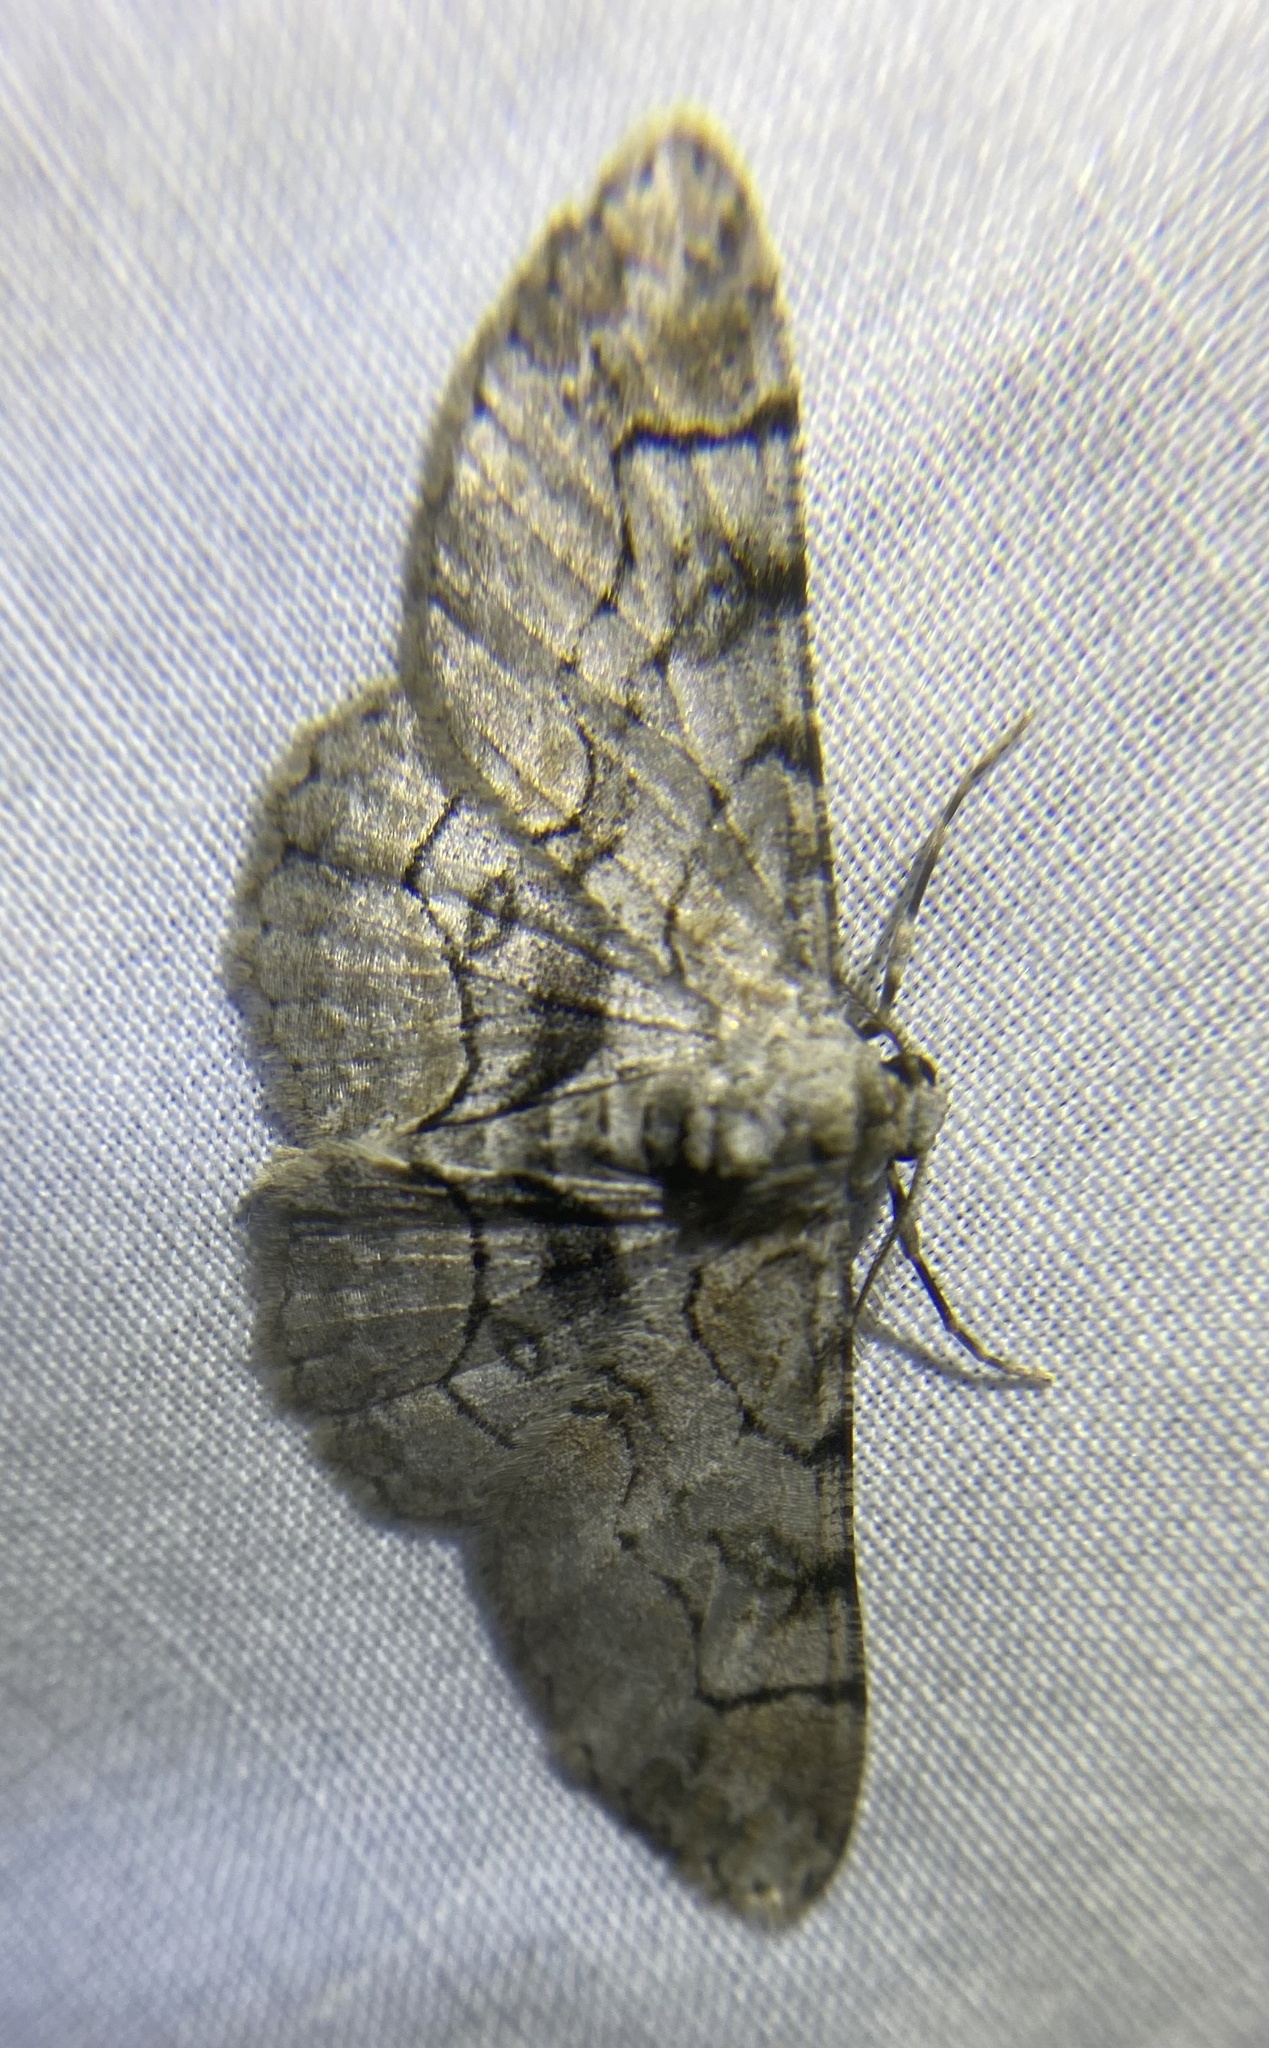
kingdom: Animalia
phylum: Arthropoda
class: Insecta
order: Lepidoptera
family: Geometridae
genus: Iridopsis
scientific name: Iridopsis larvaria
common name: Bent-line gray
